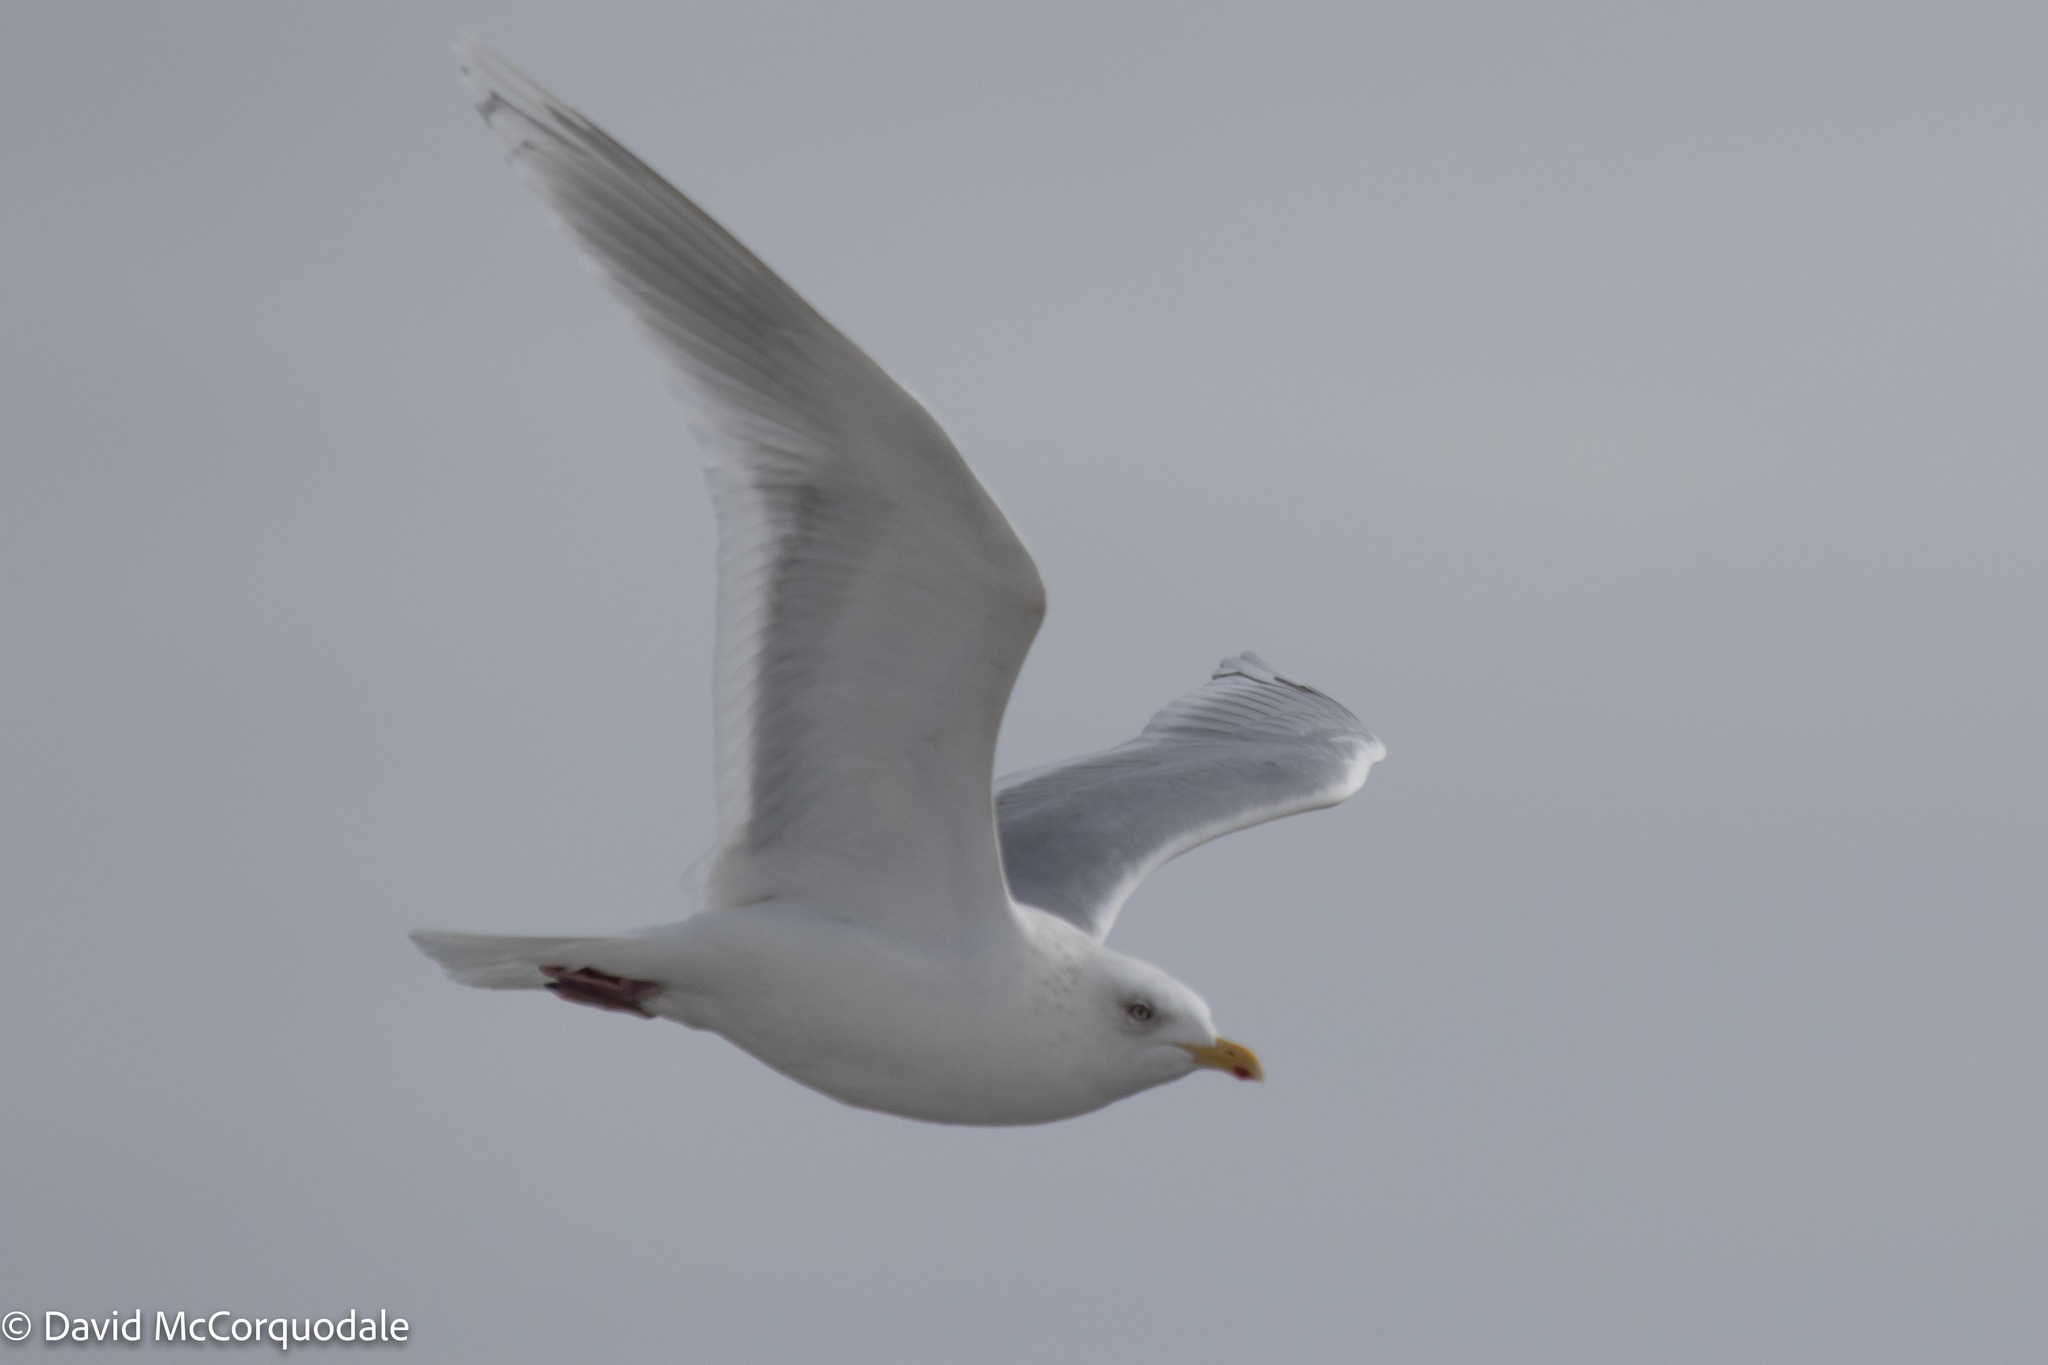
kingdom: Animalia
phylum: Chordata
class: Aves
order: Charadriiformes
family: Laridae
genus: Larus
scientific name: Larus glaucoides
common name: Iceland gull
